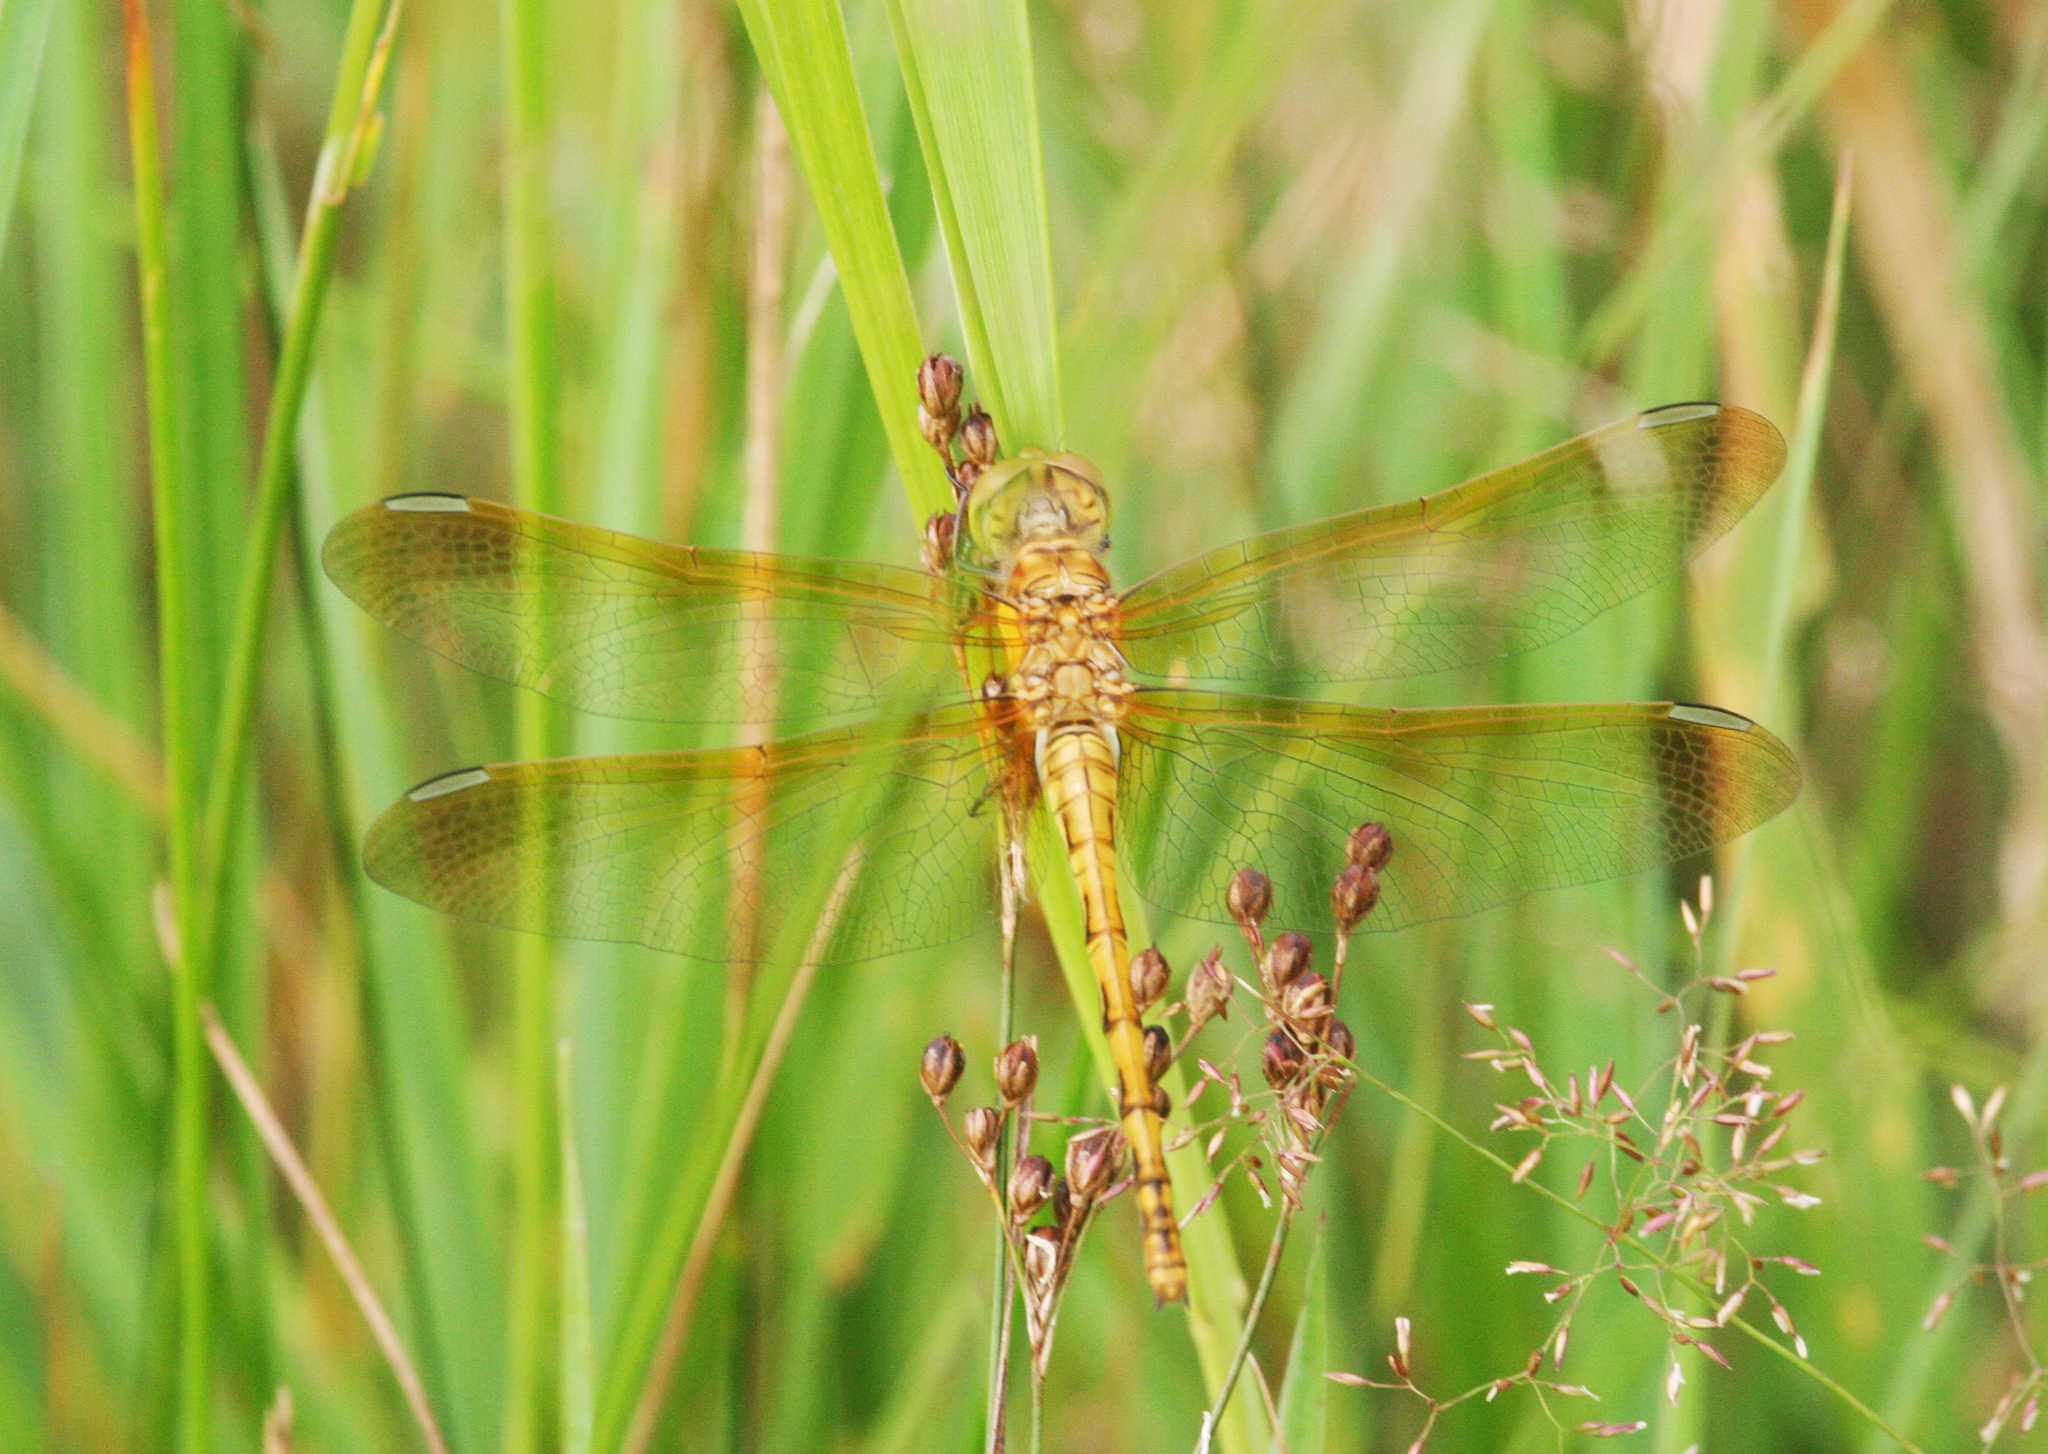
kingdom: Animalia
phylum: Arthropoda
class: Insecta
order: Odonata
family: Libellulidae
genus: Sympetrum
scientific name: Sympetrum striolatum
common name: Common darter
